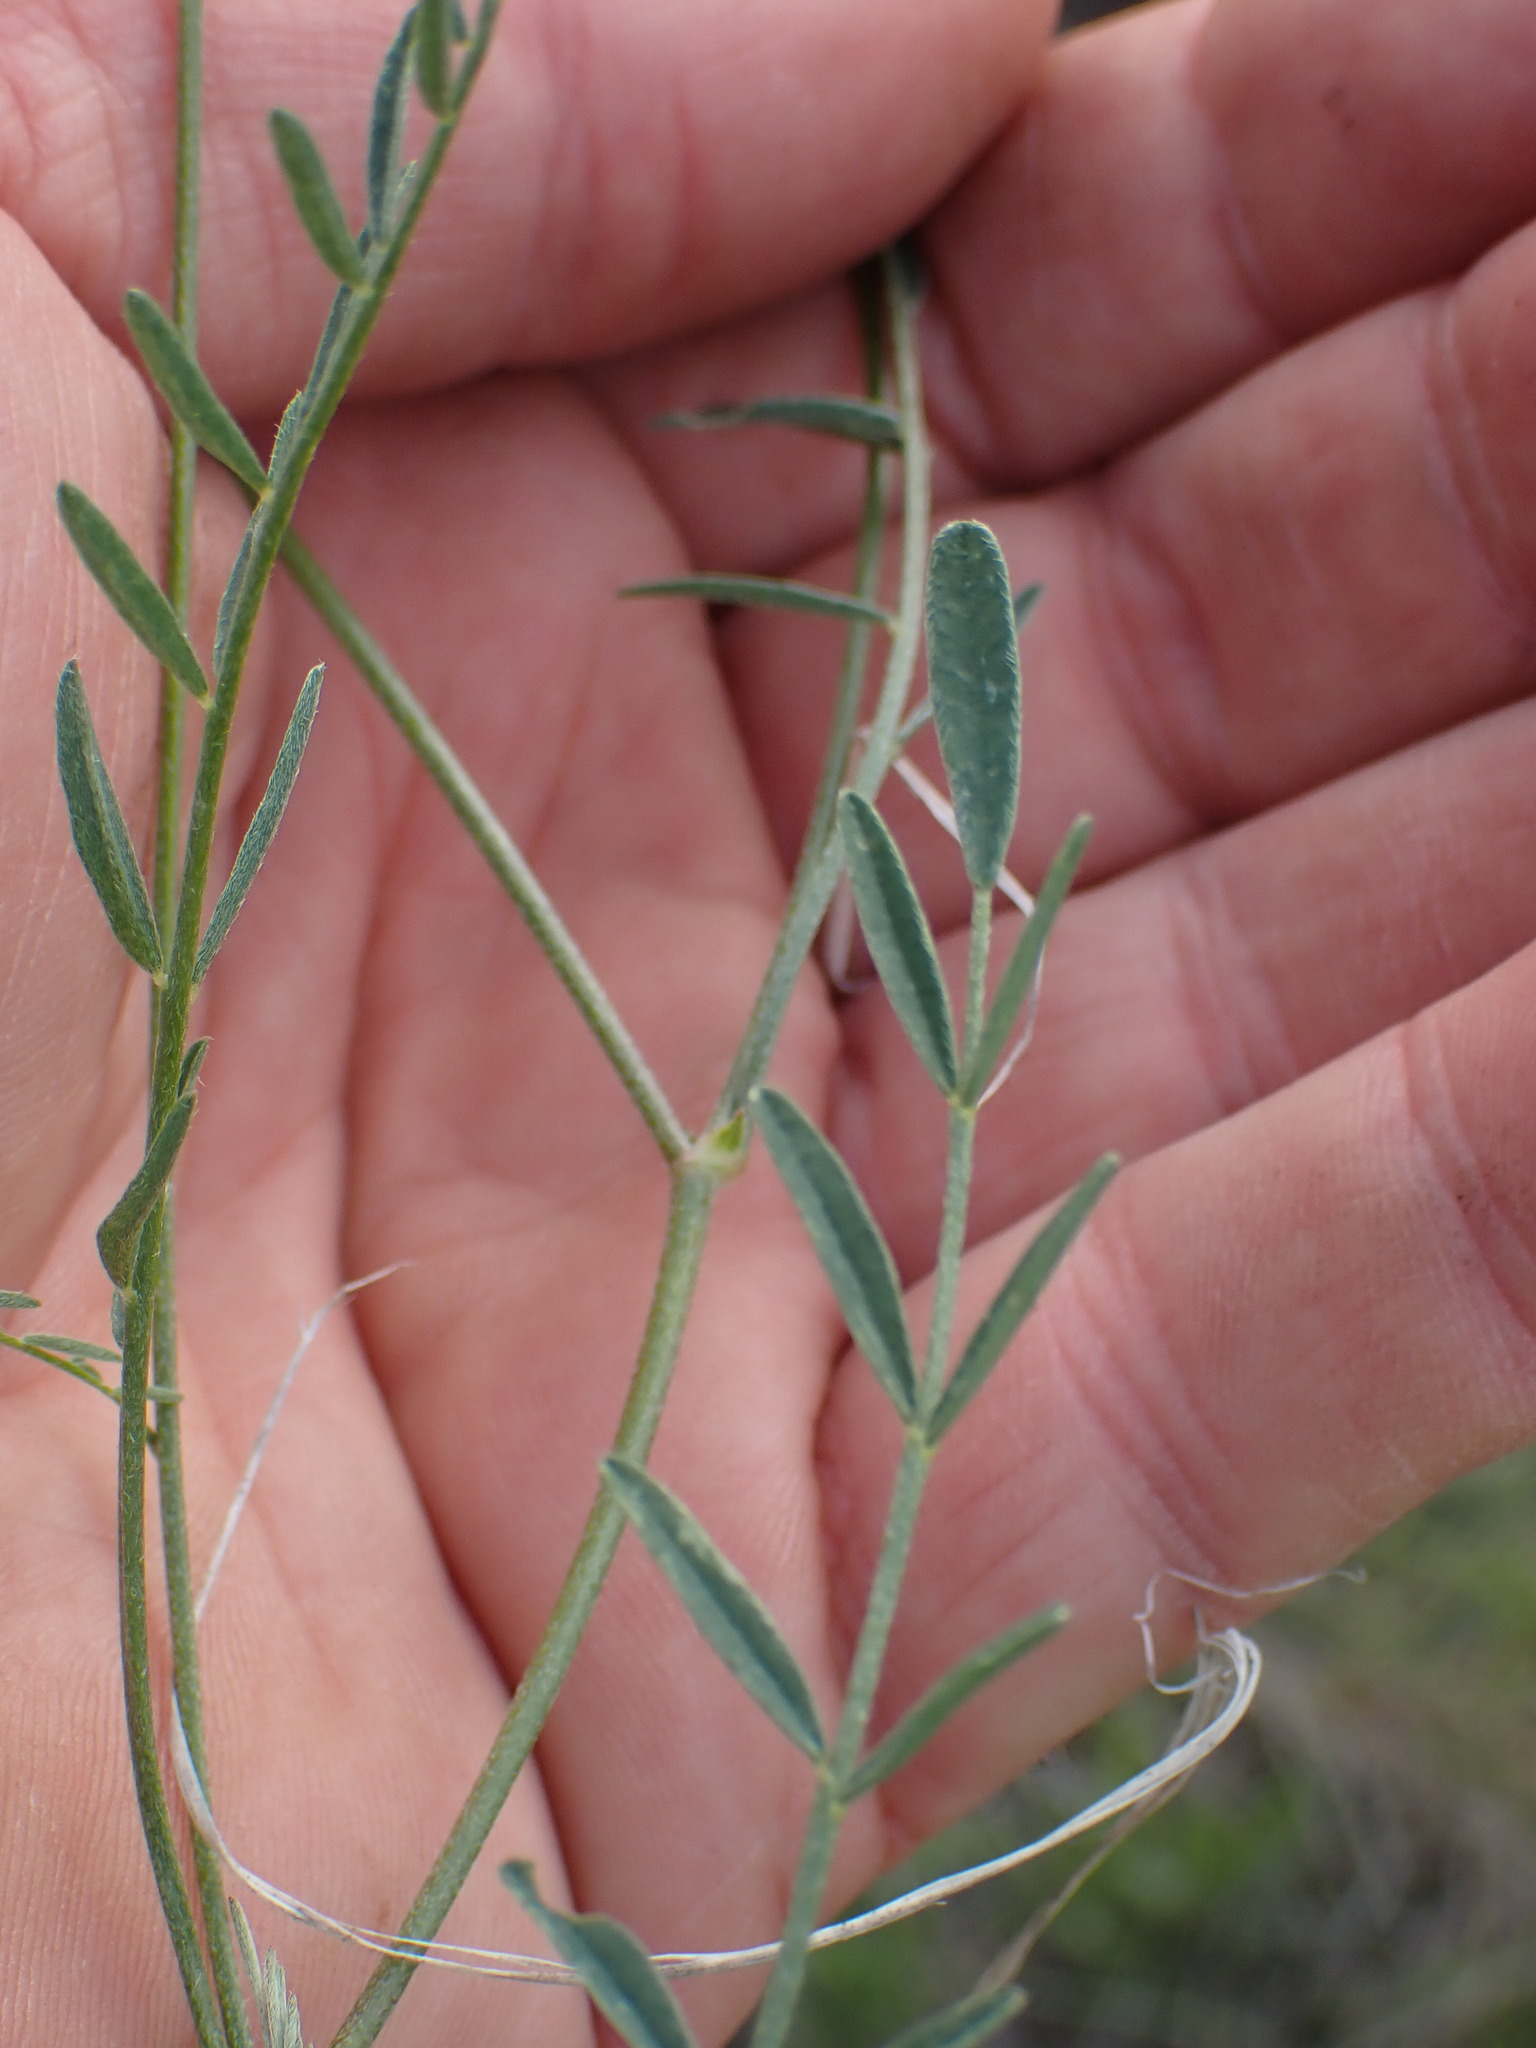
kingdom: Plantae
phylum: Tracheophyta
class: Magnoliopsida
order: Fabales
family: Fabaceae
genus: Astragalus
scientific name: Astragalus miser
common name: Timber milkvetch
